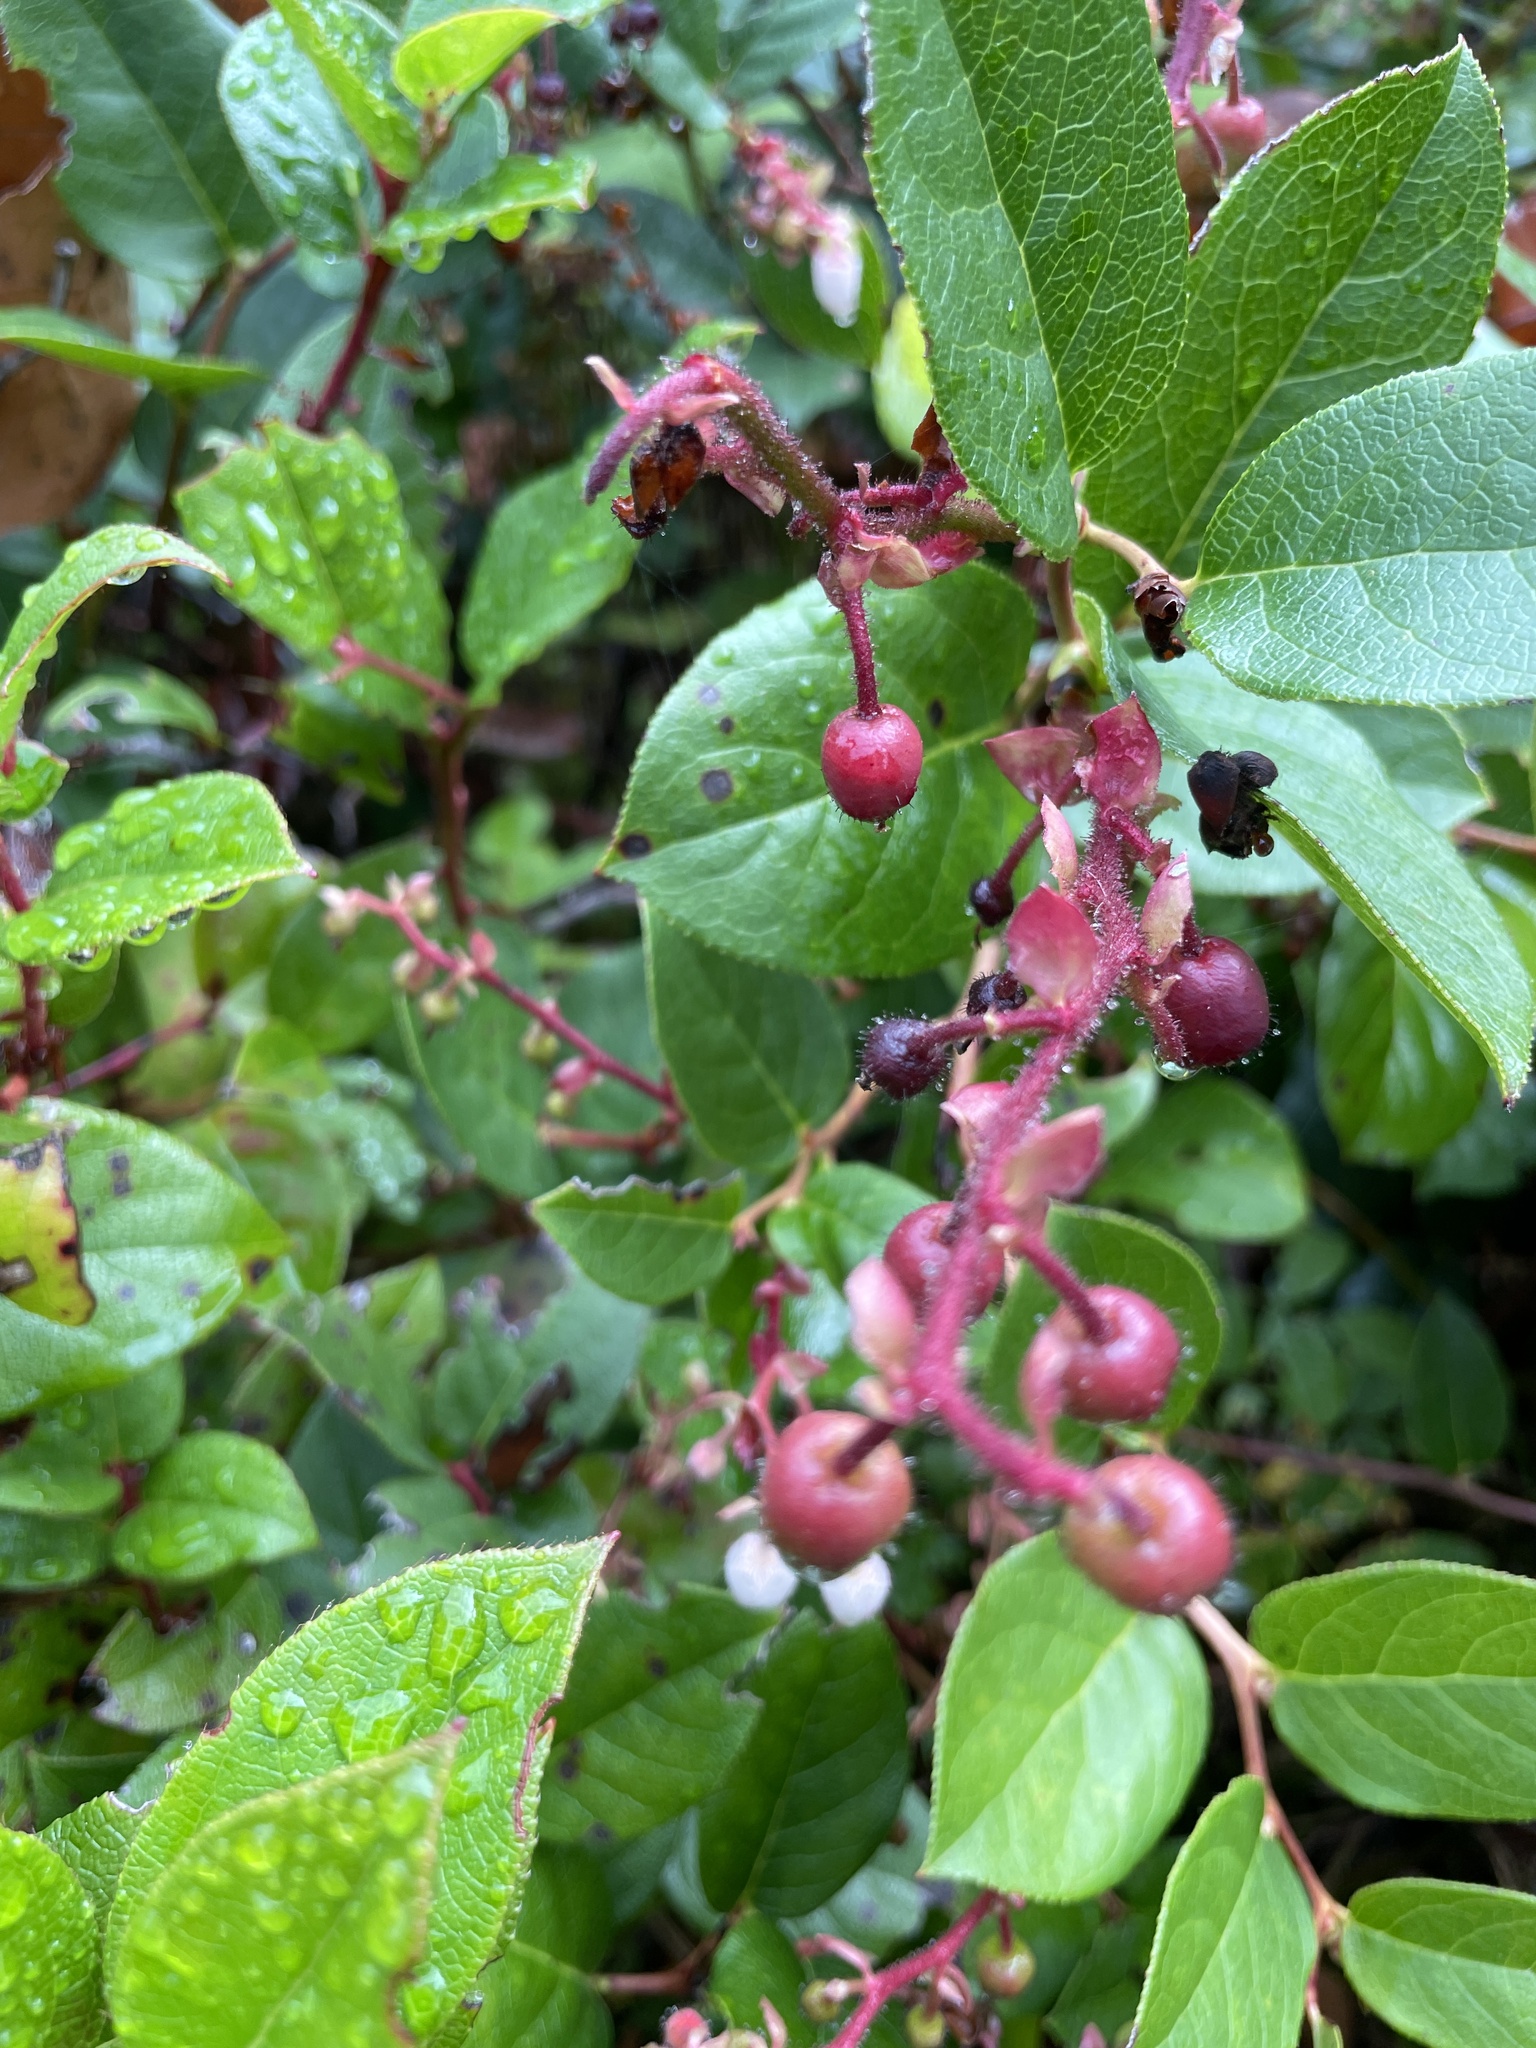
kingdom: Plantae
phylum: Tracheophyta
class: Magnoliopsida
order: Ericales
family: Ericaceae
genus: Gaultheria
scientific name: Gaultheria shallon
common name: Shallon
